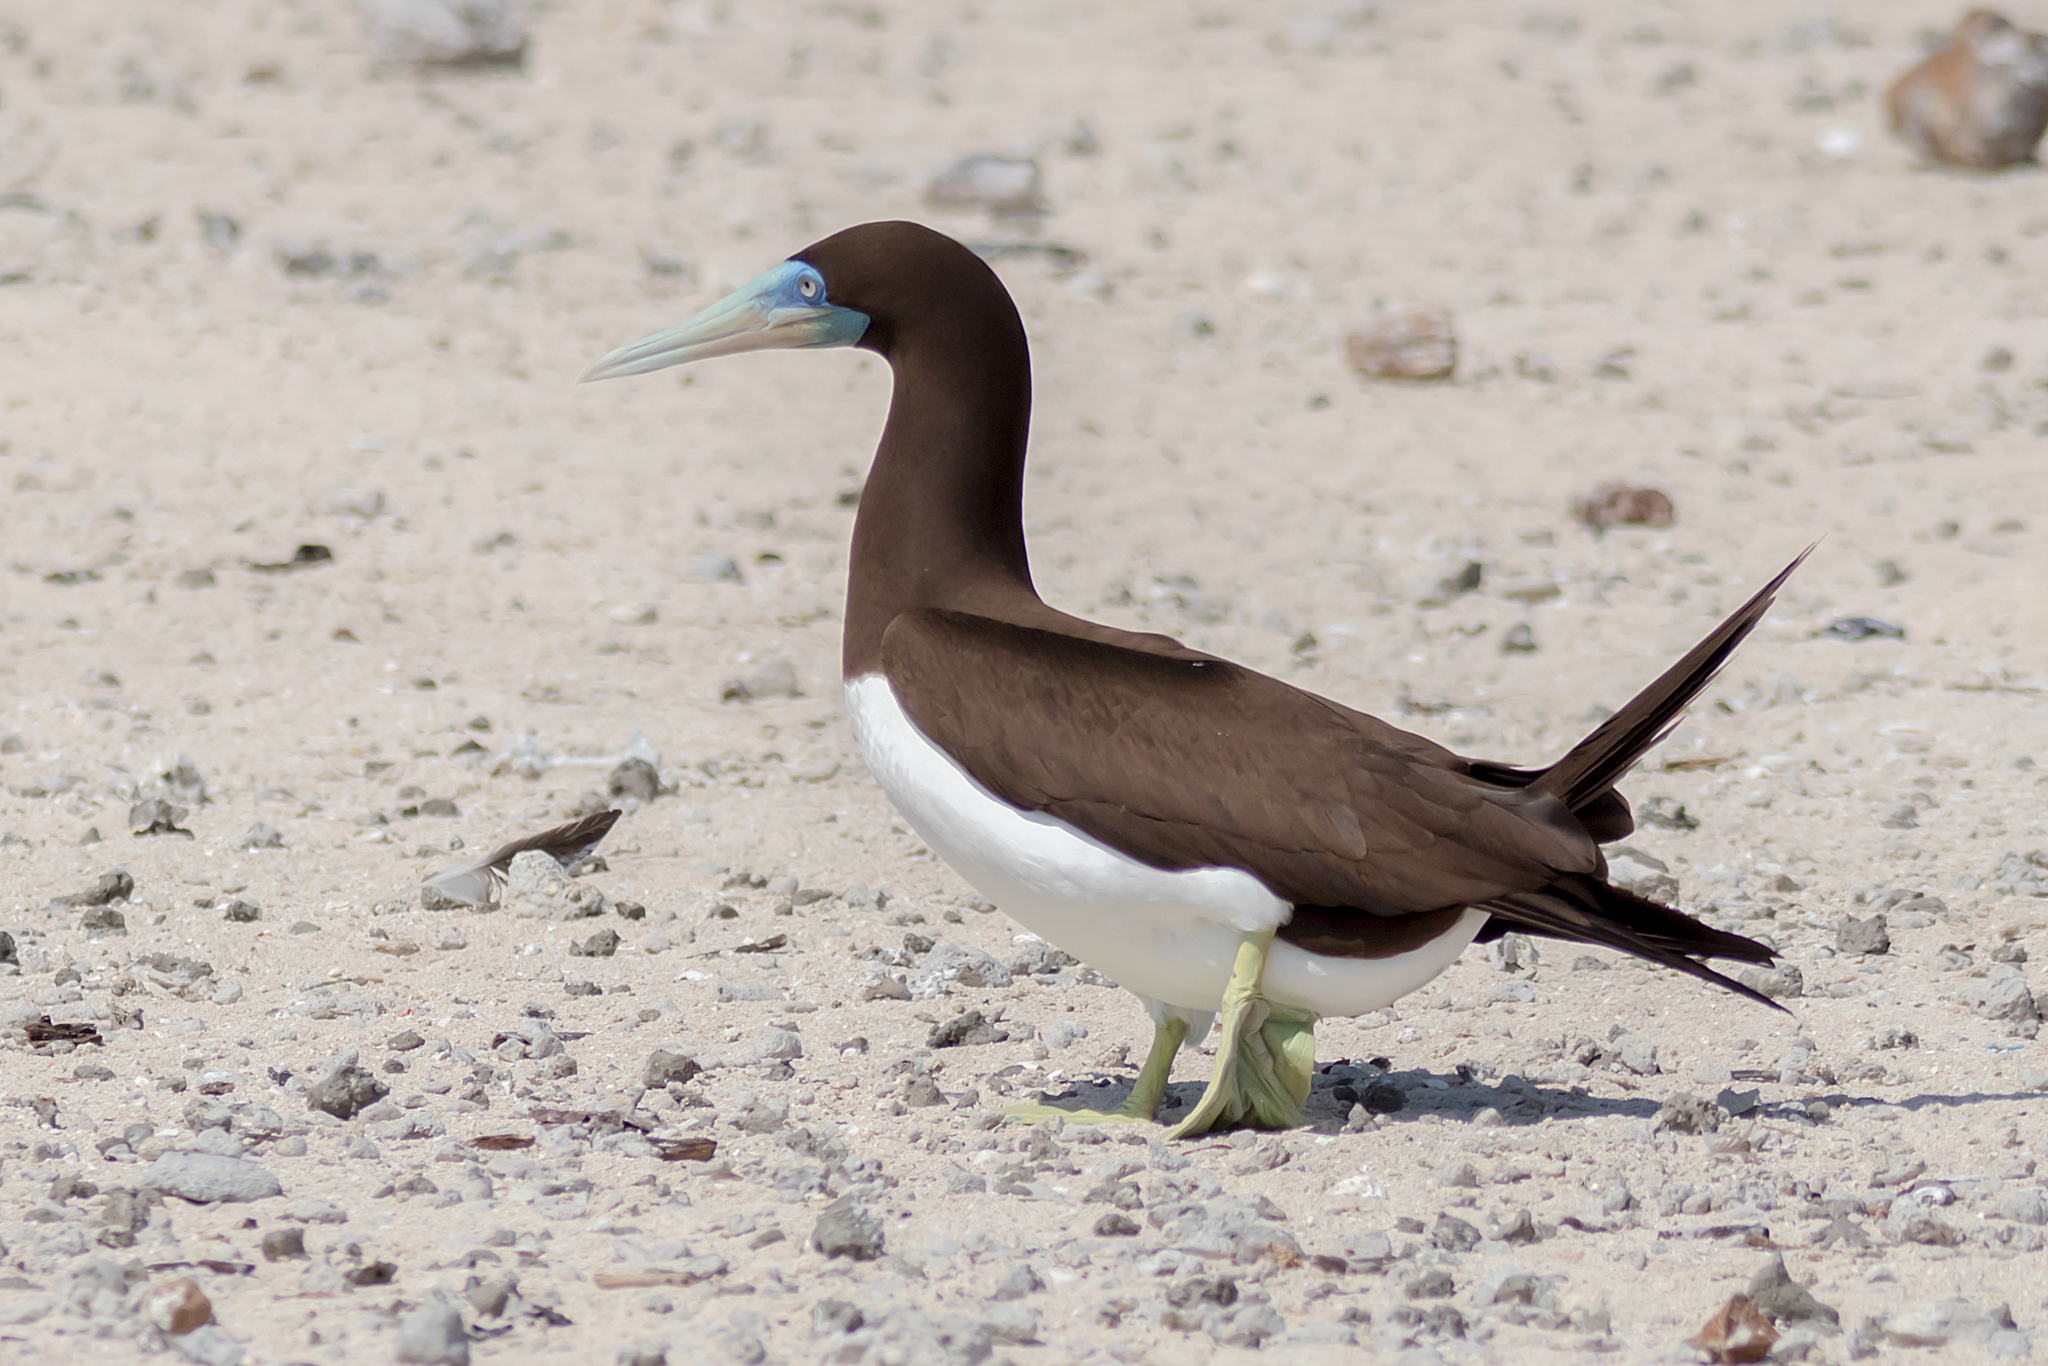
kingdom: Animalia
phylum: Chordata
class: Aves
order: Suliformes
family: Sulidae
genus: Sula
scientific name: Sula leucogaster
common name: Brown booby
